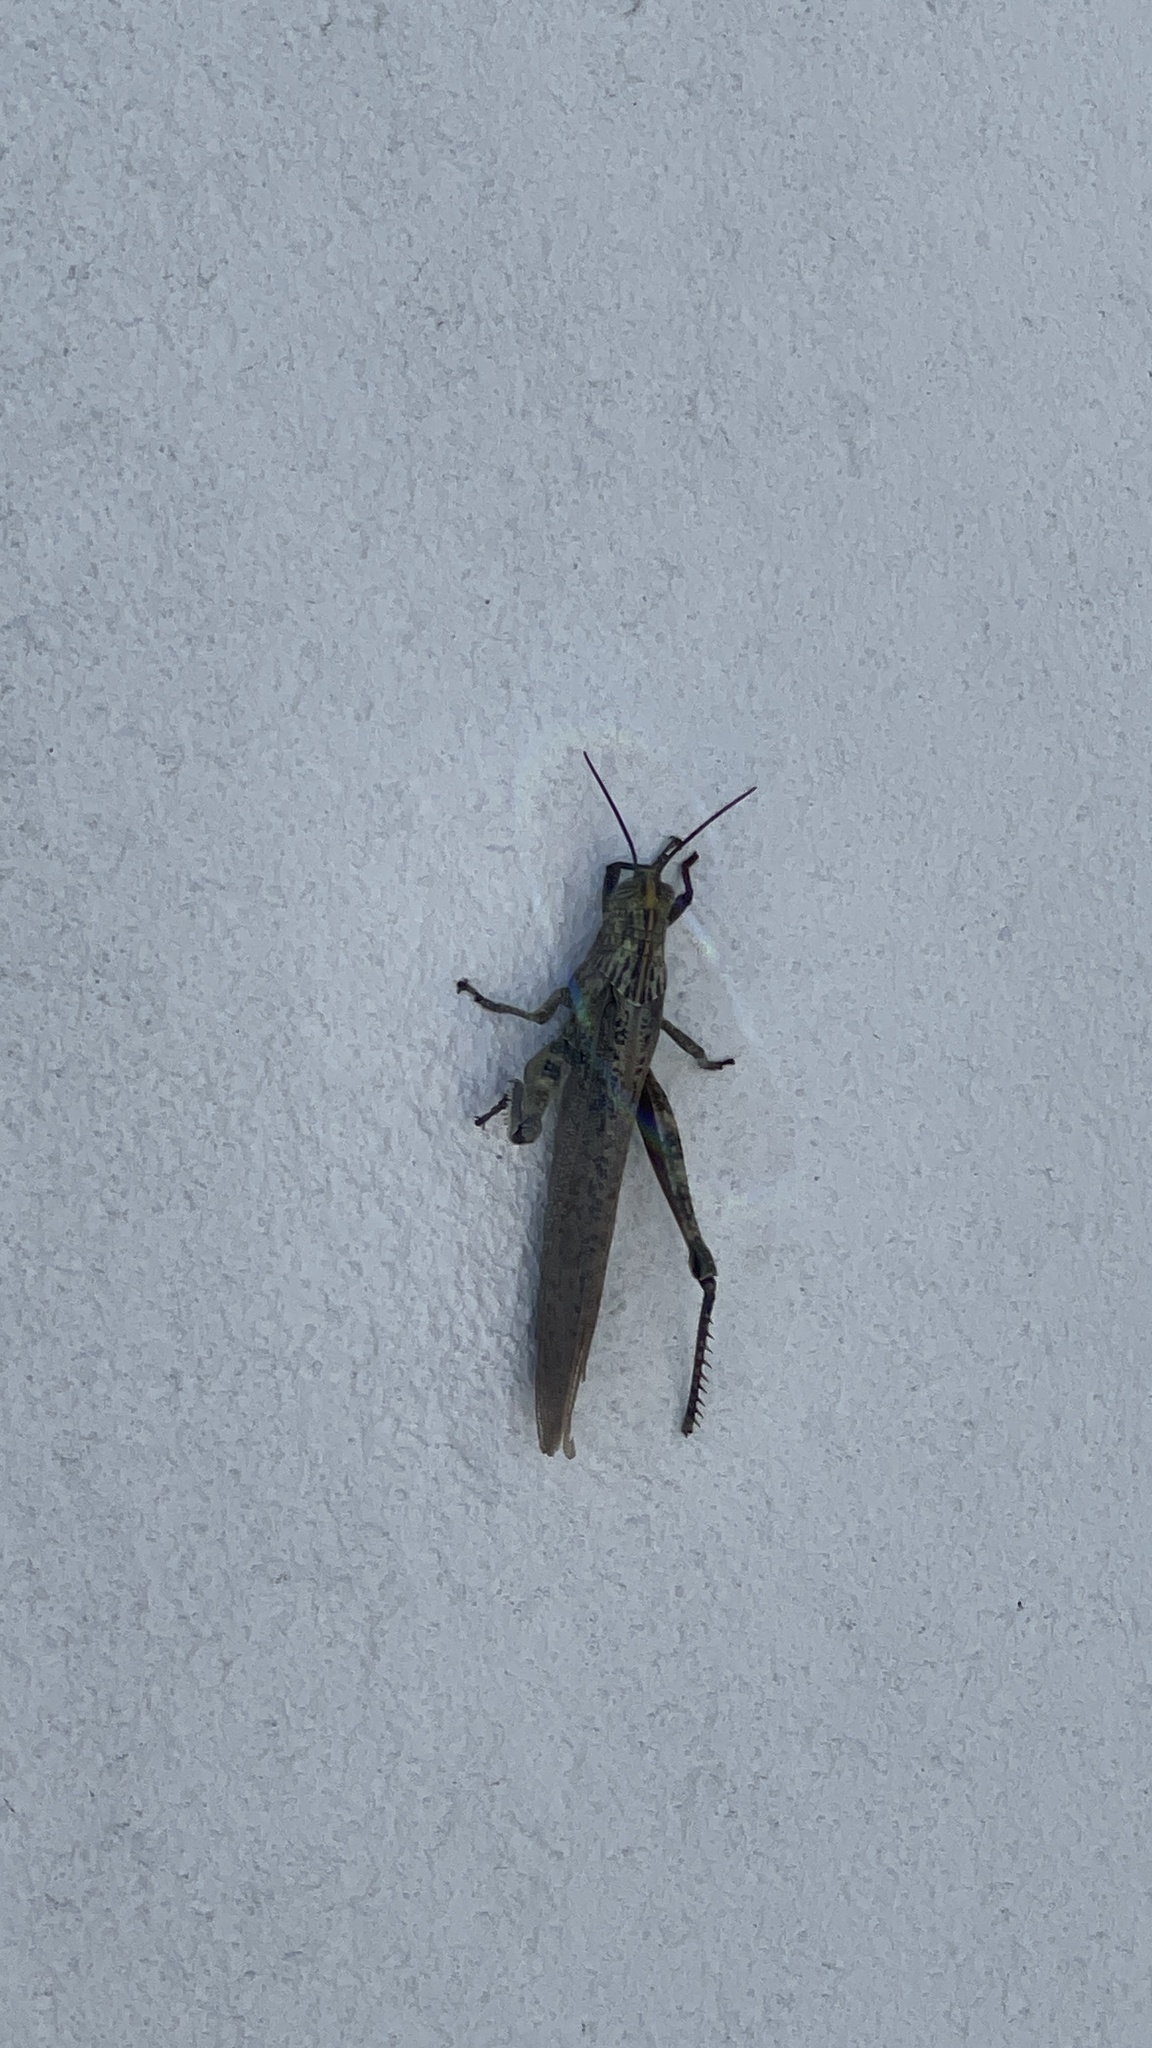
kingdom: Animalia
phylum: Arthropoda
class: Insecta
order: Orthoptera
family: Acrididae
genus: Anacridium
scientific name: Anacridium aegyptium
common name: Egyptian grasshopper
